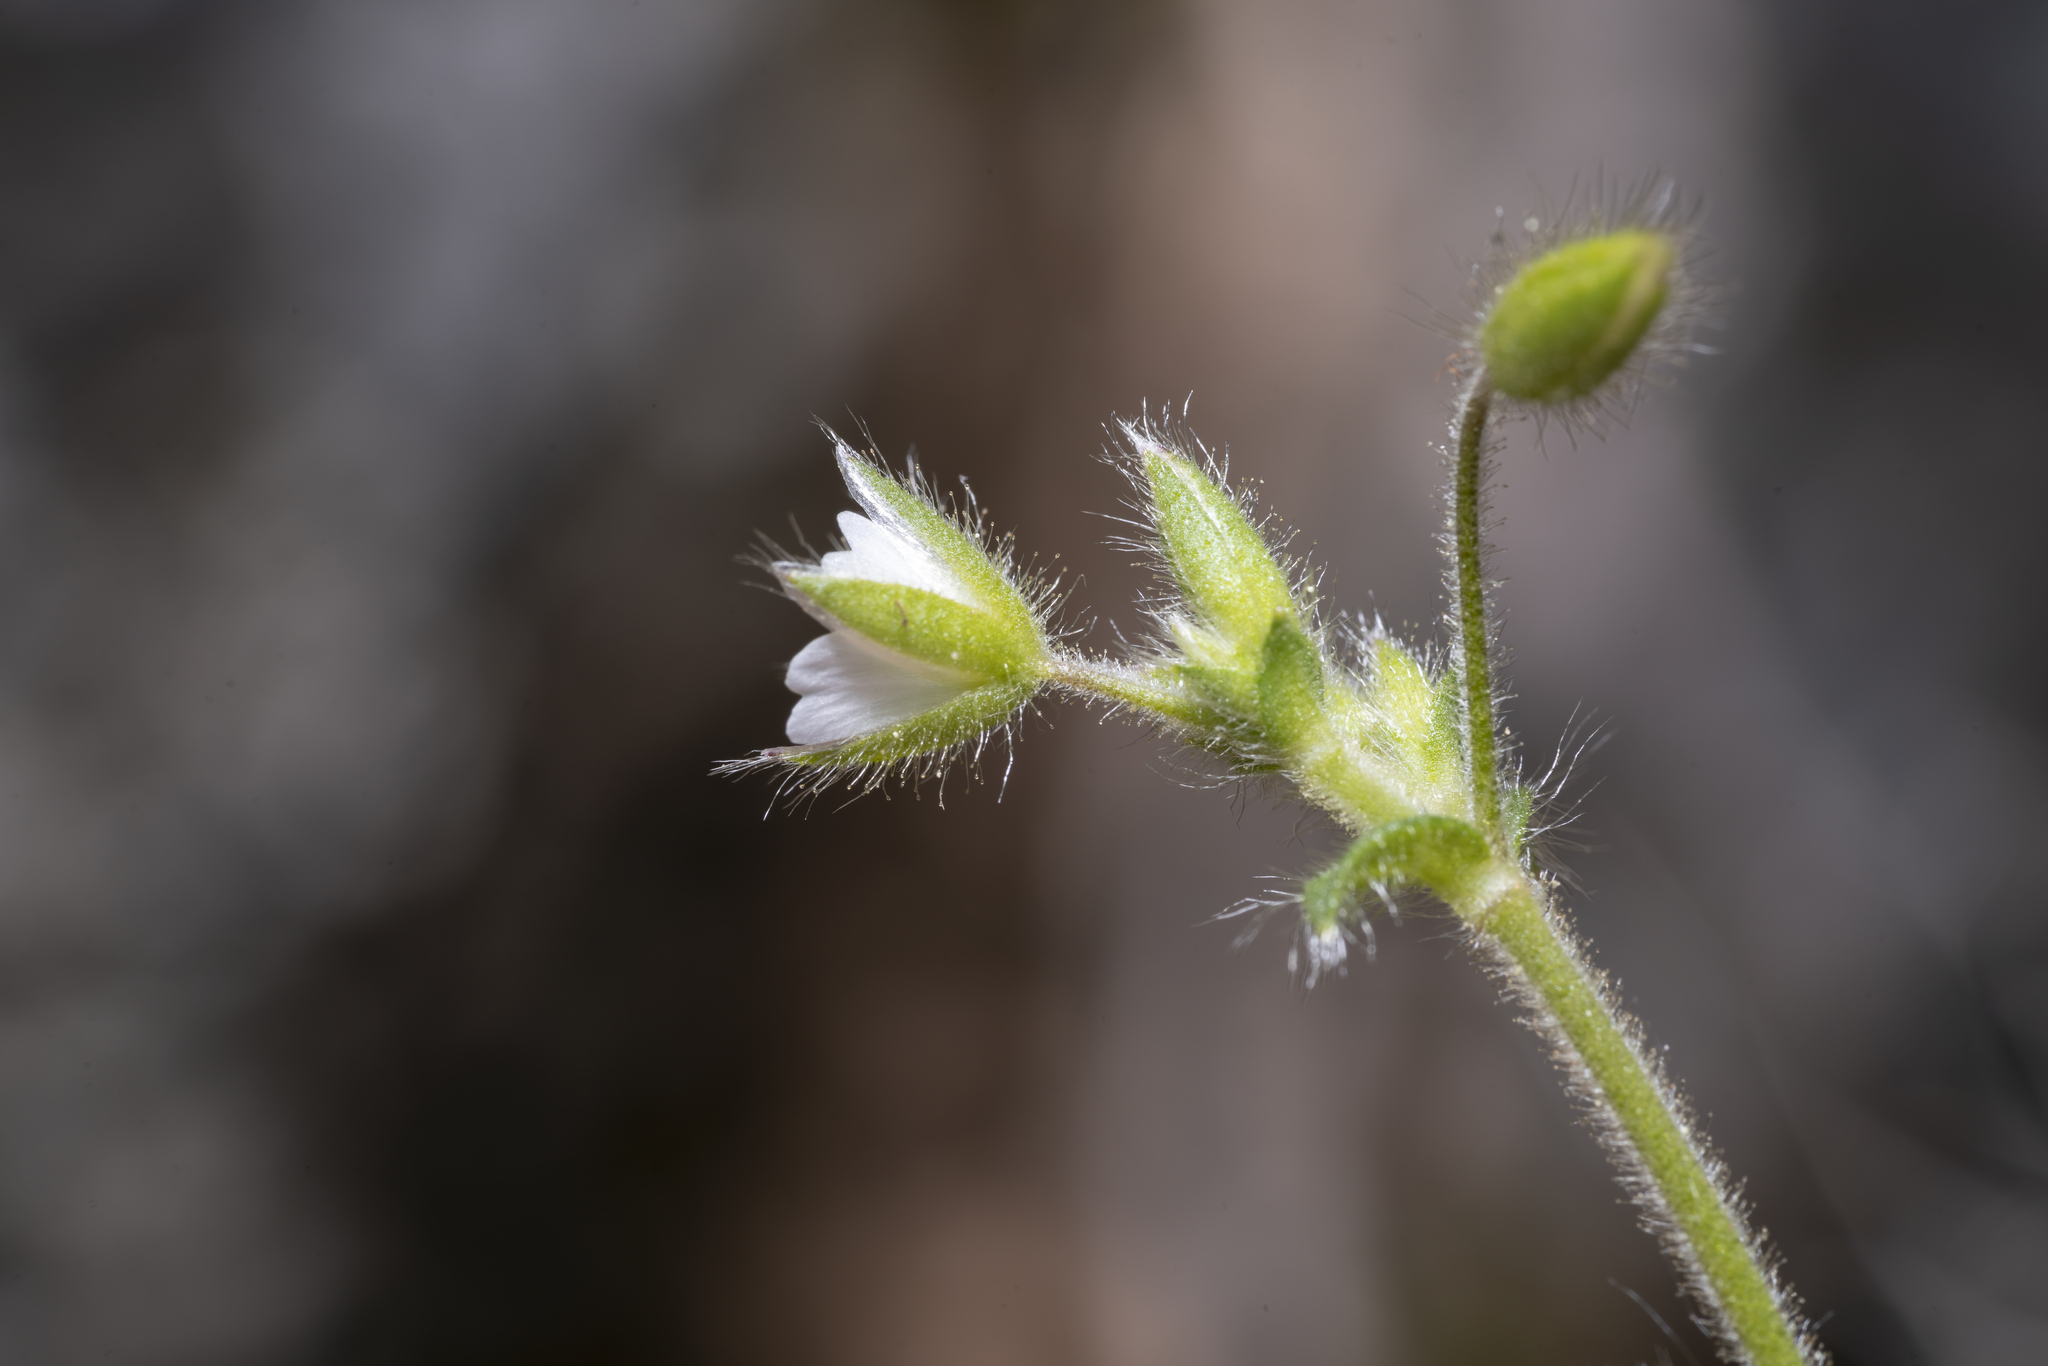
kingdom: Plantae
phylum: Tracheophyta
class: Magnoliopsida
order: Caryophyllales
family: Caryophyllaceae
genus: Cerastium
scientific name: Cerastium brachypetalum
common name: Grey mouse-ear
